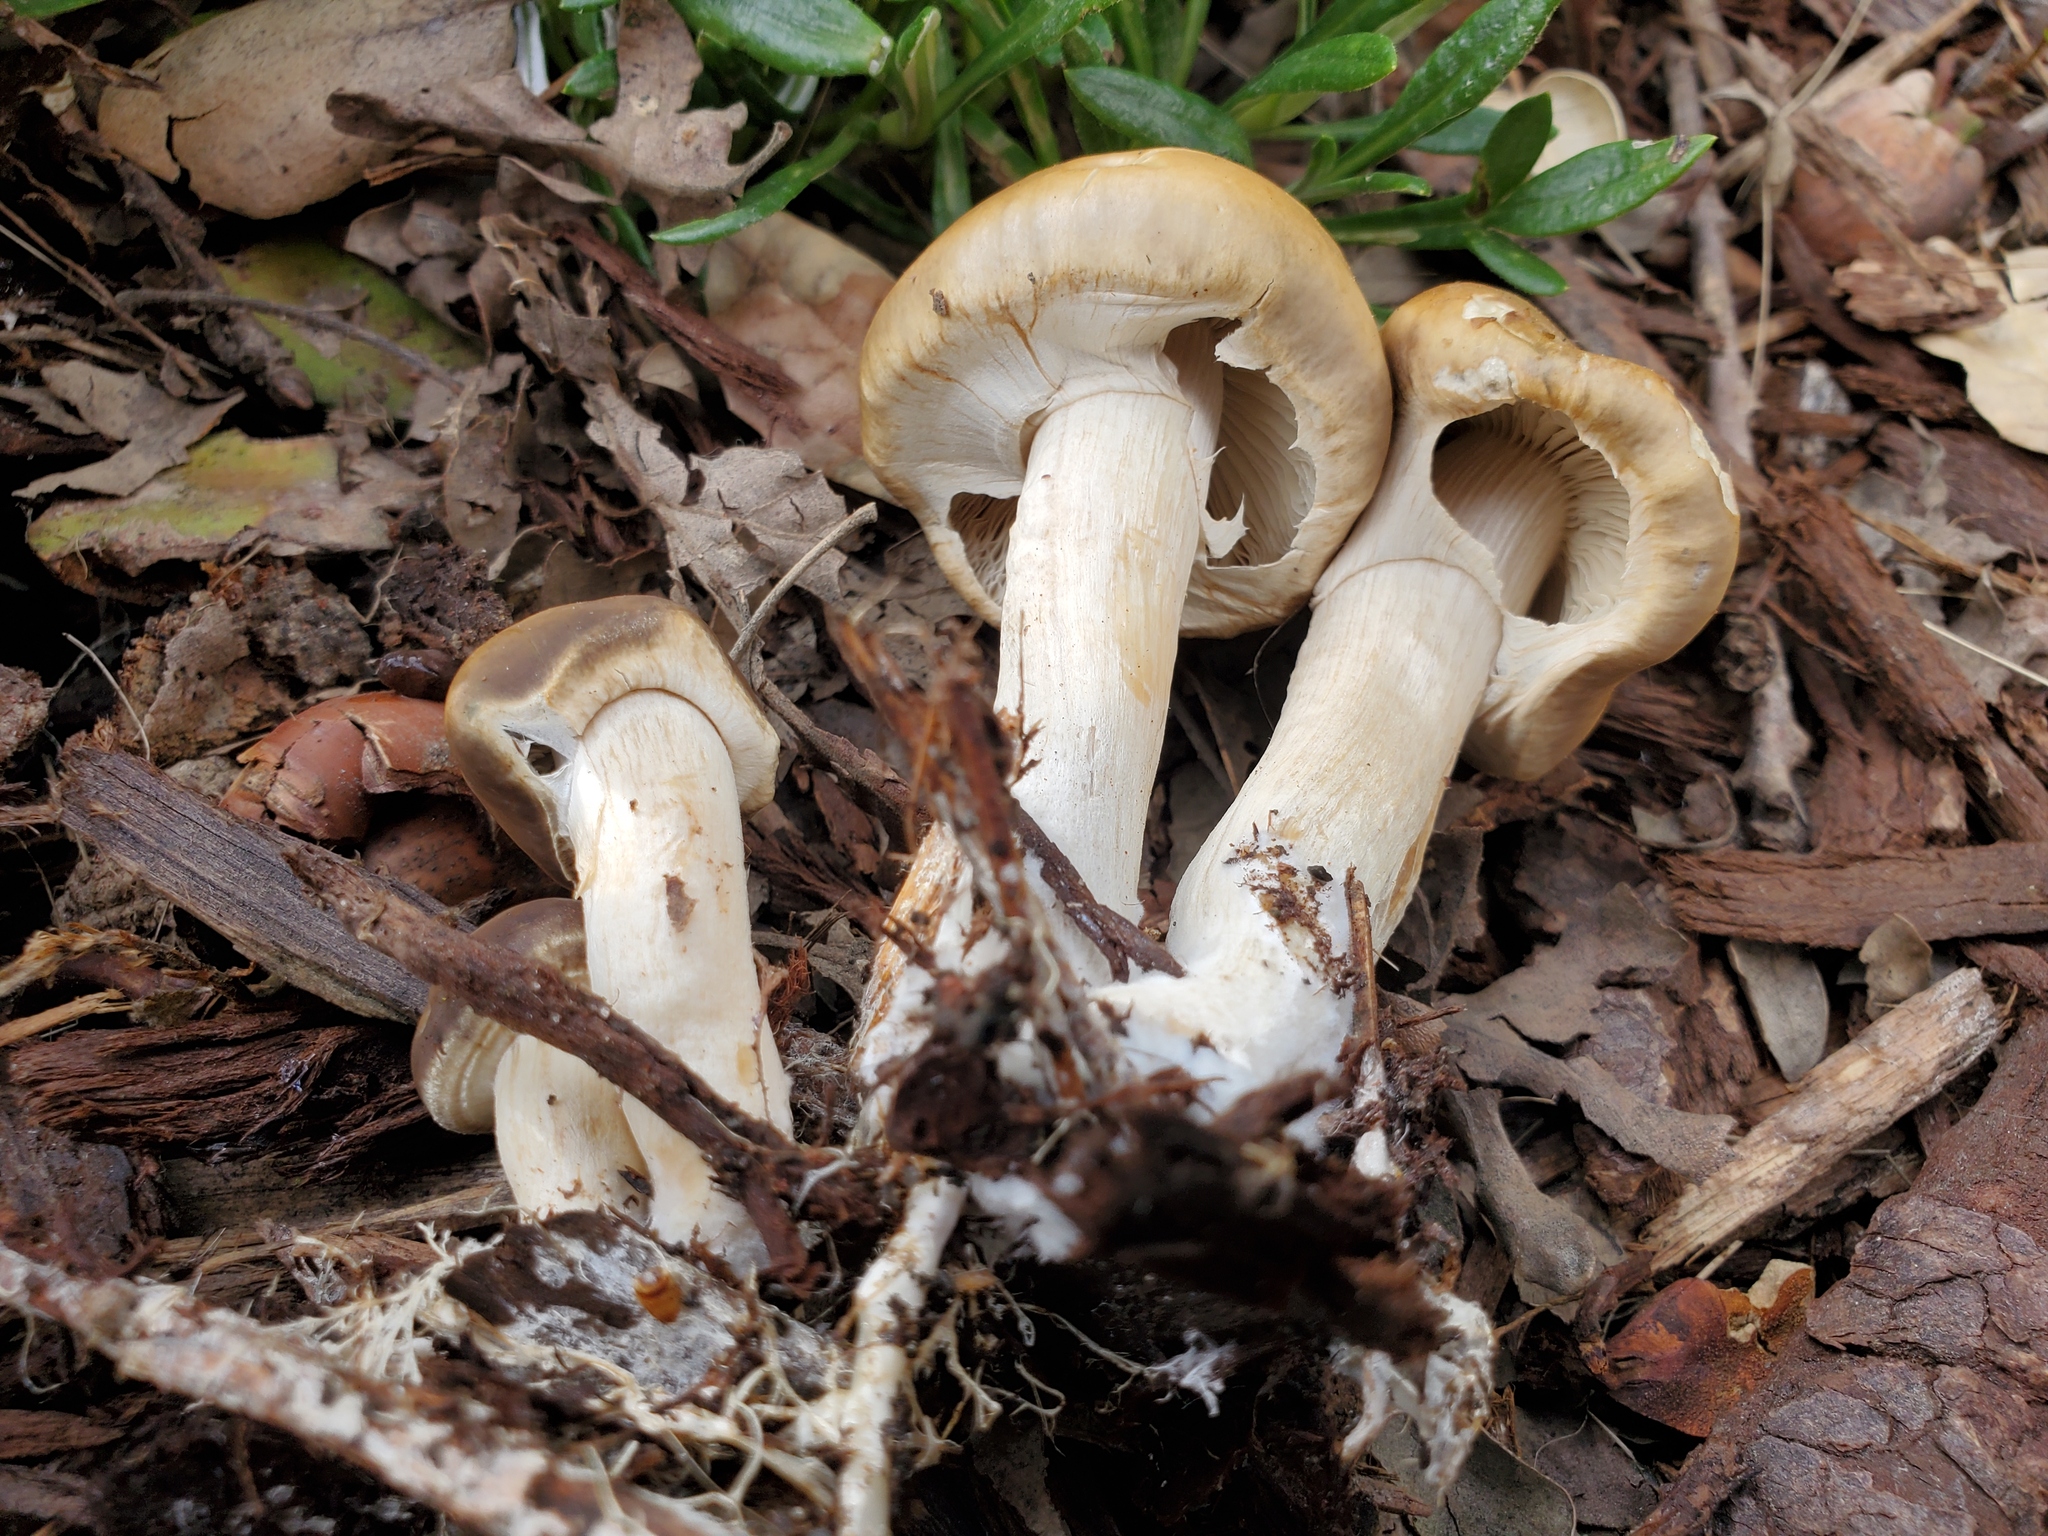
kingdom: Fungi
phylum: Basidiomycota
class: Agaricomycetes
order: Agaricales
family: Strophariaceae
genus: Agrocybe
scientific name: Agrocybe praecox
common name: Spring fieldcap
